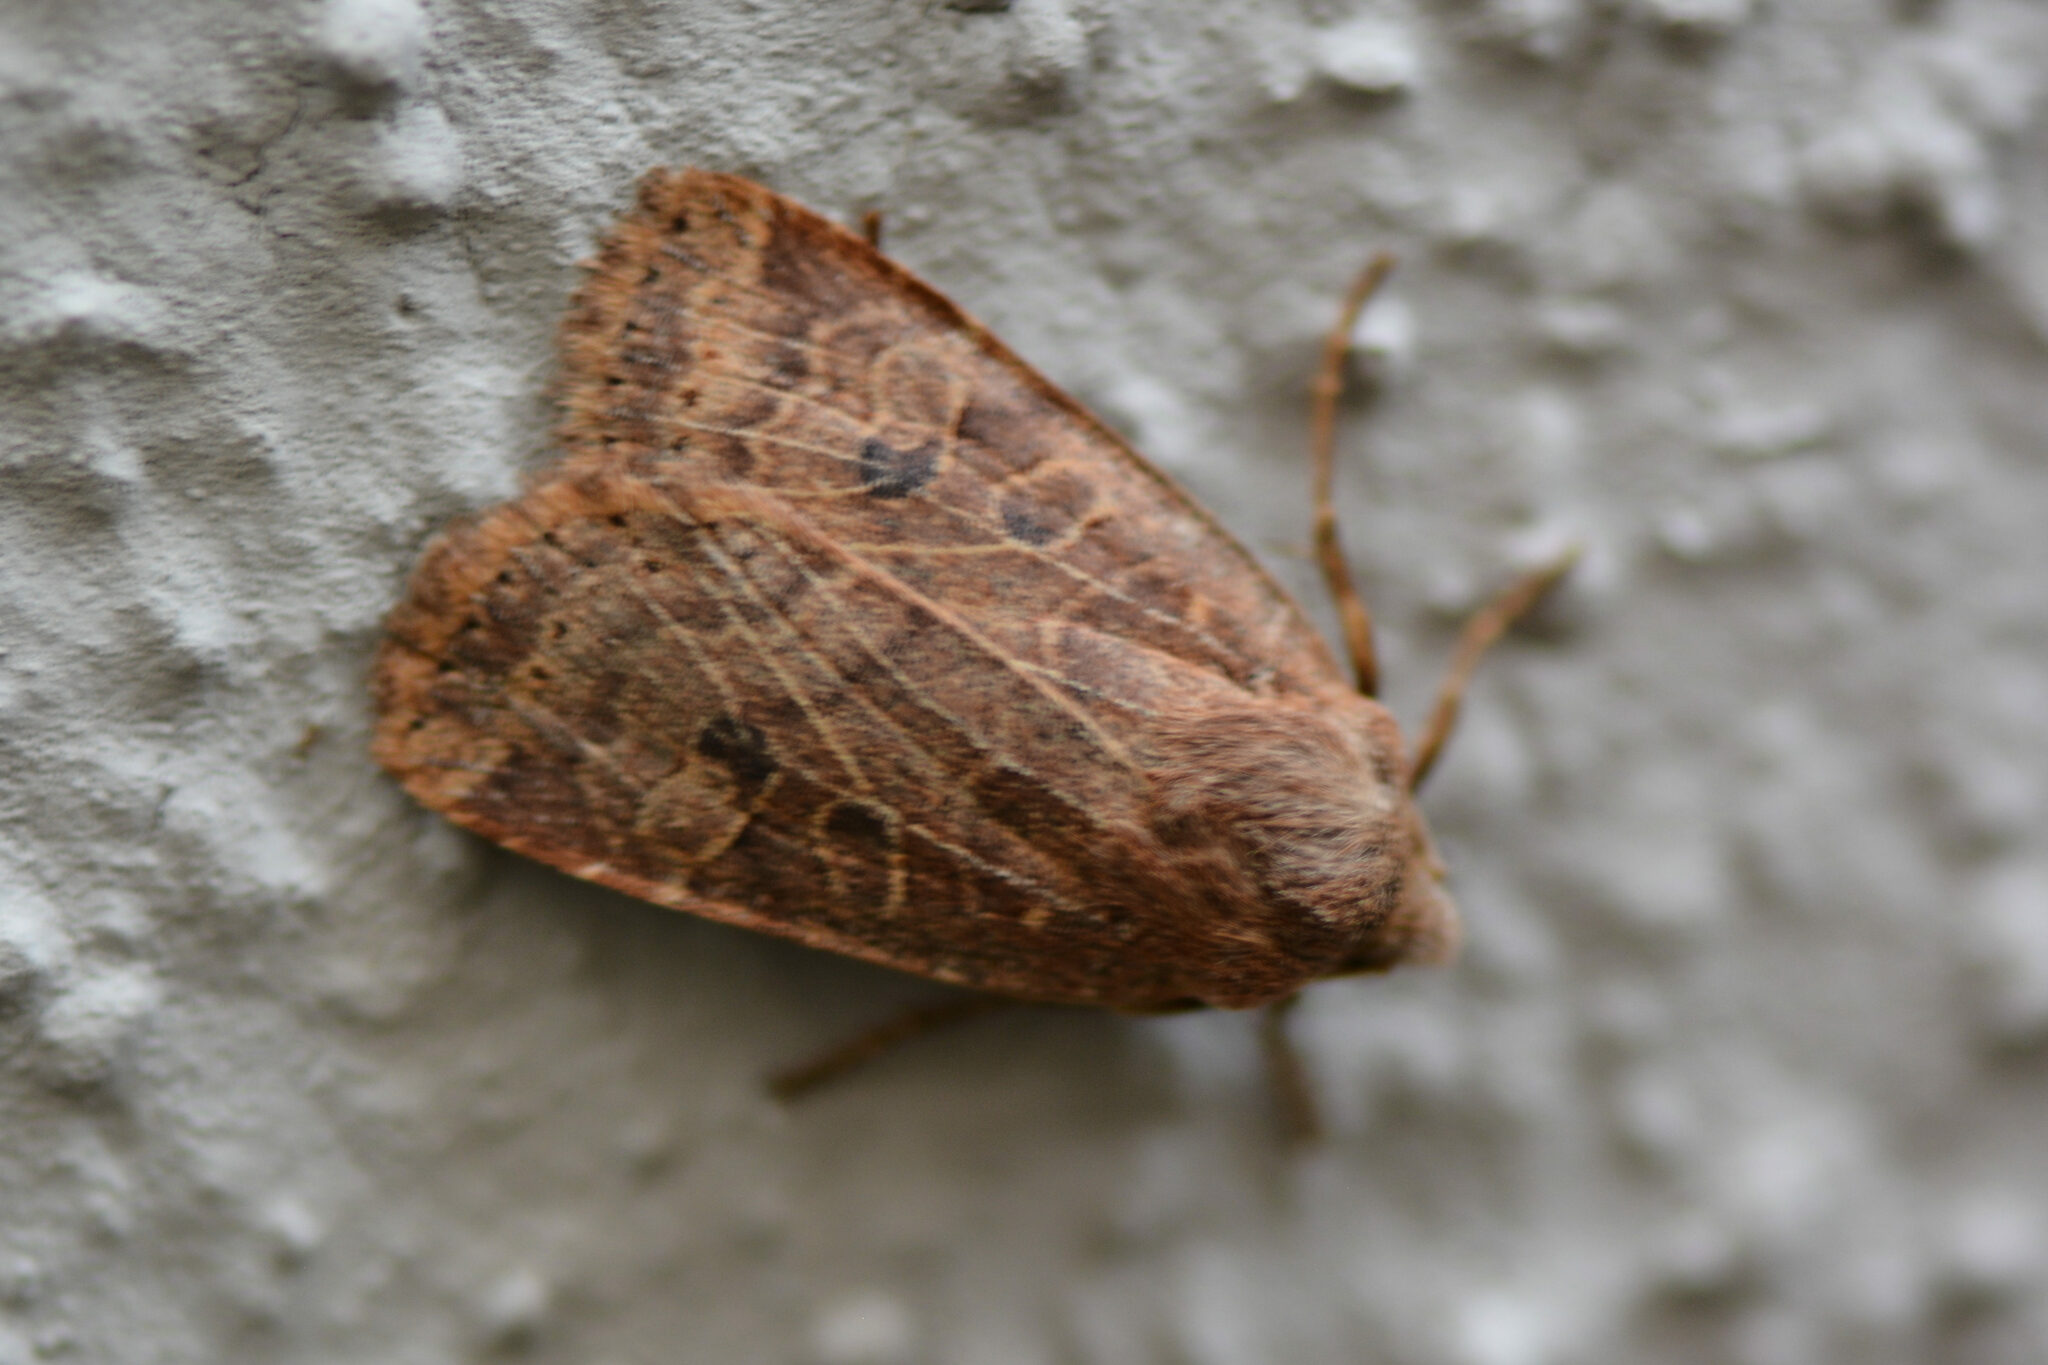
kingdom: Animalia
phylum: Arthropoda
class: Insecta
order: Lepidoptera
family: Noctuidae
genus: Conistra
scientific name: Conistra vaccinii
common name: Chestnut
